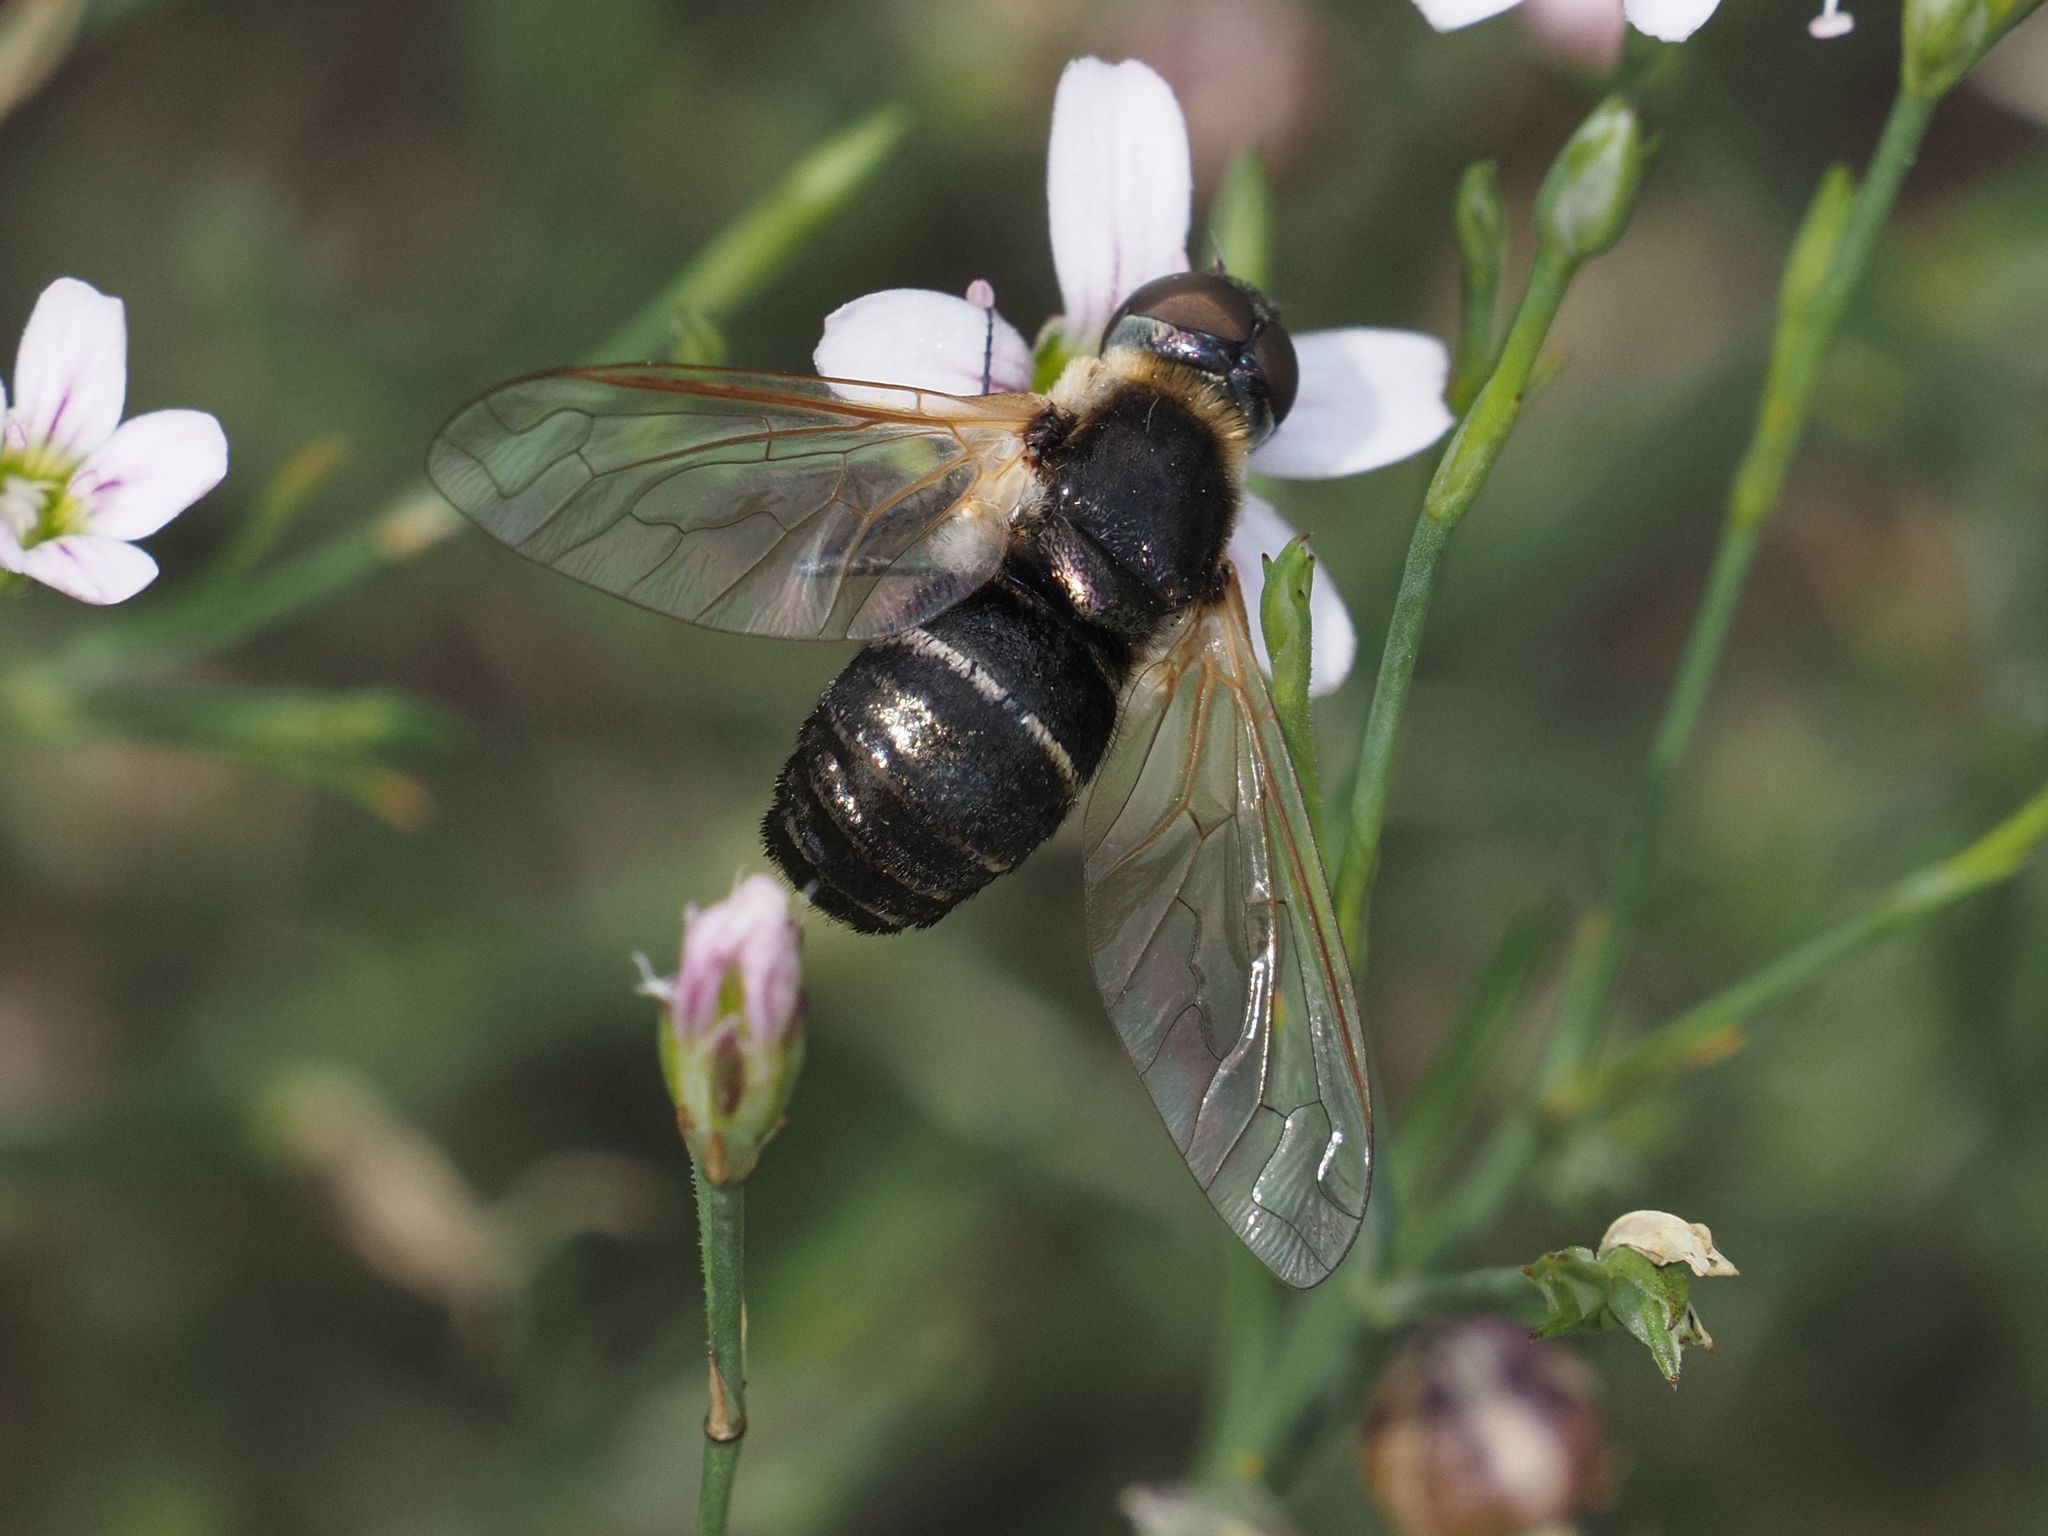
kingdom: Animalia
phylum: Arthropoda
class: Insecta
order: Diptera
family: Bombyliidae
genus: Micomitra
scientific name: Micomitra stupida
